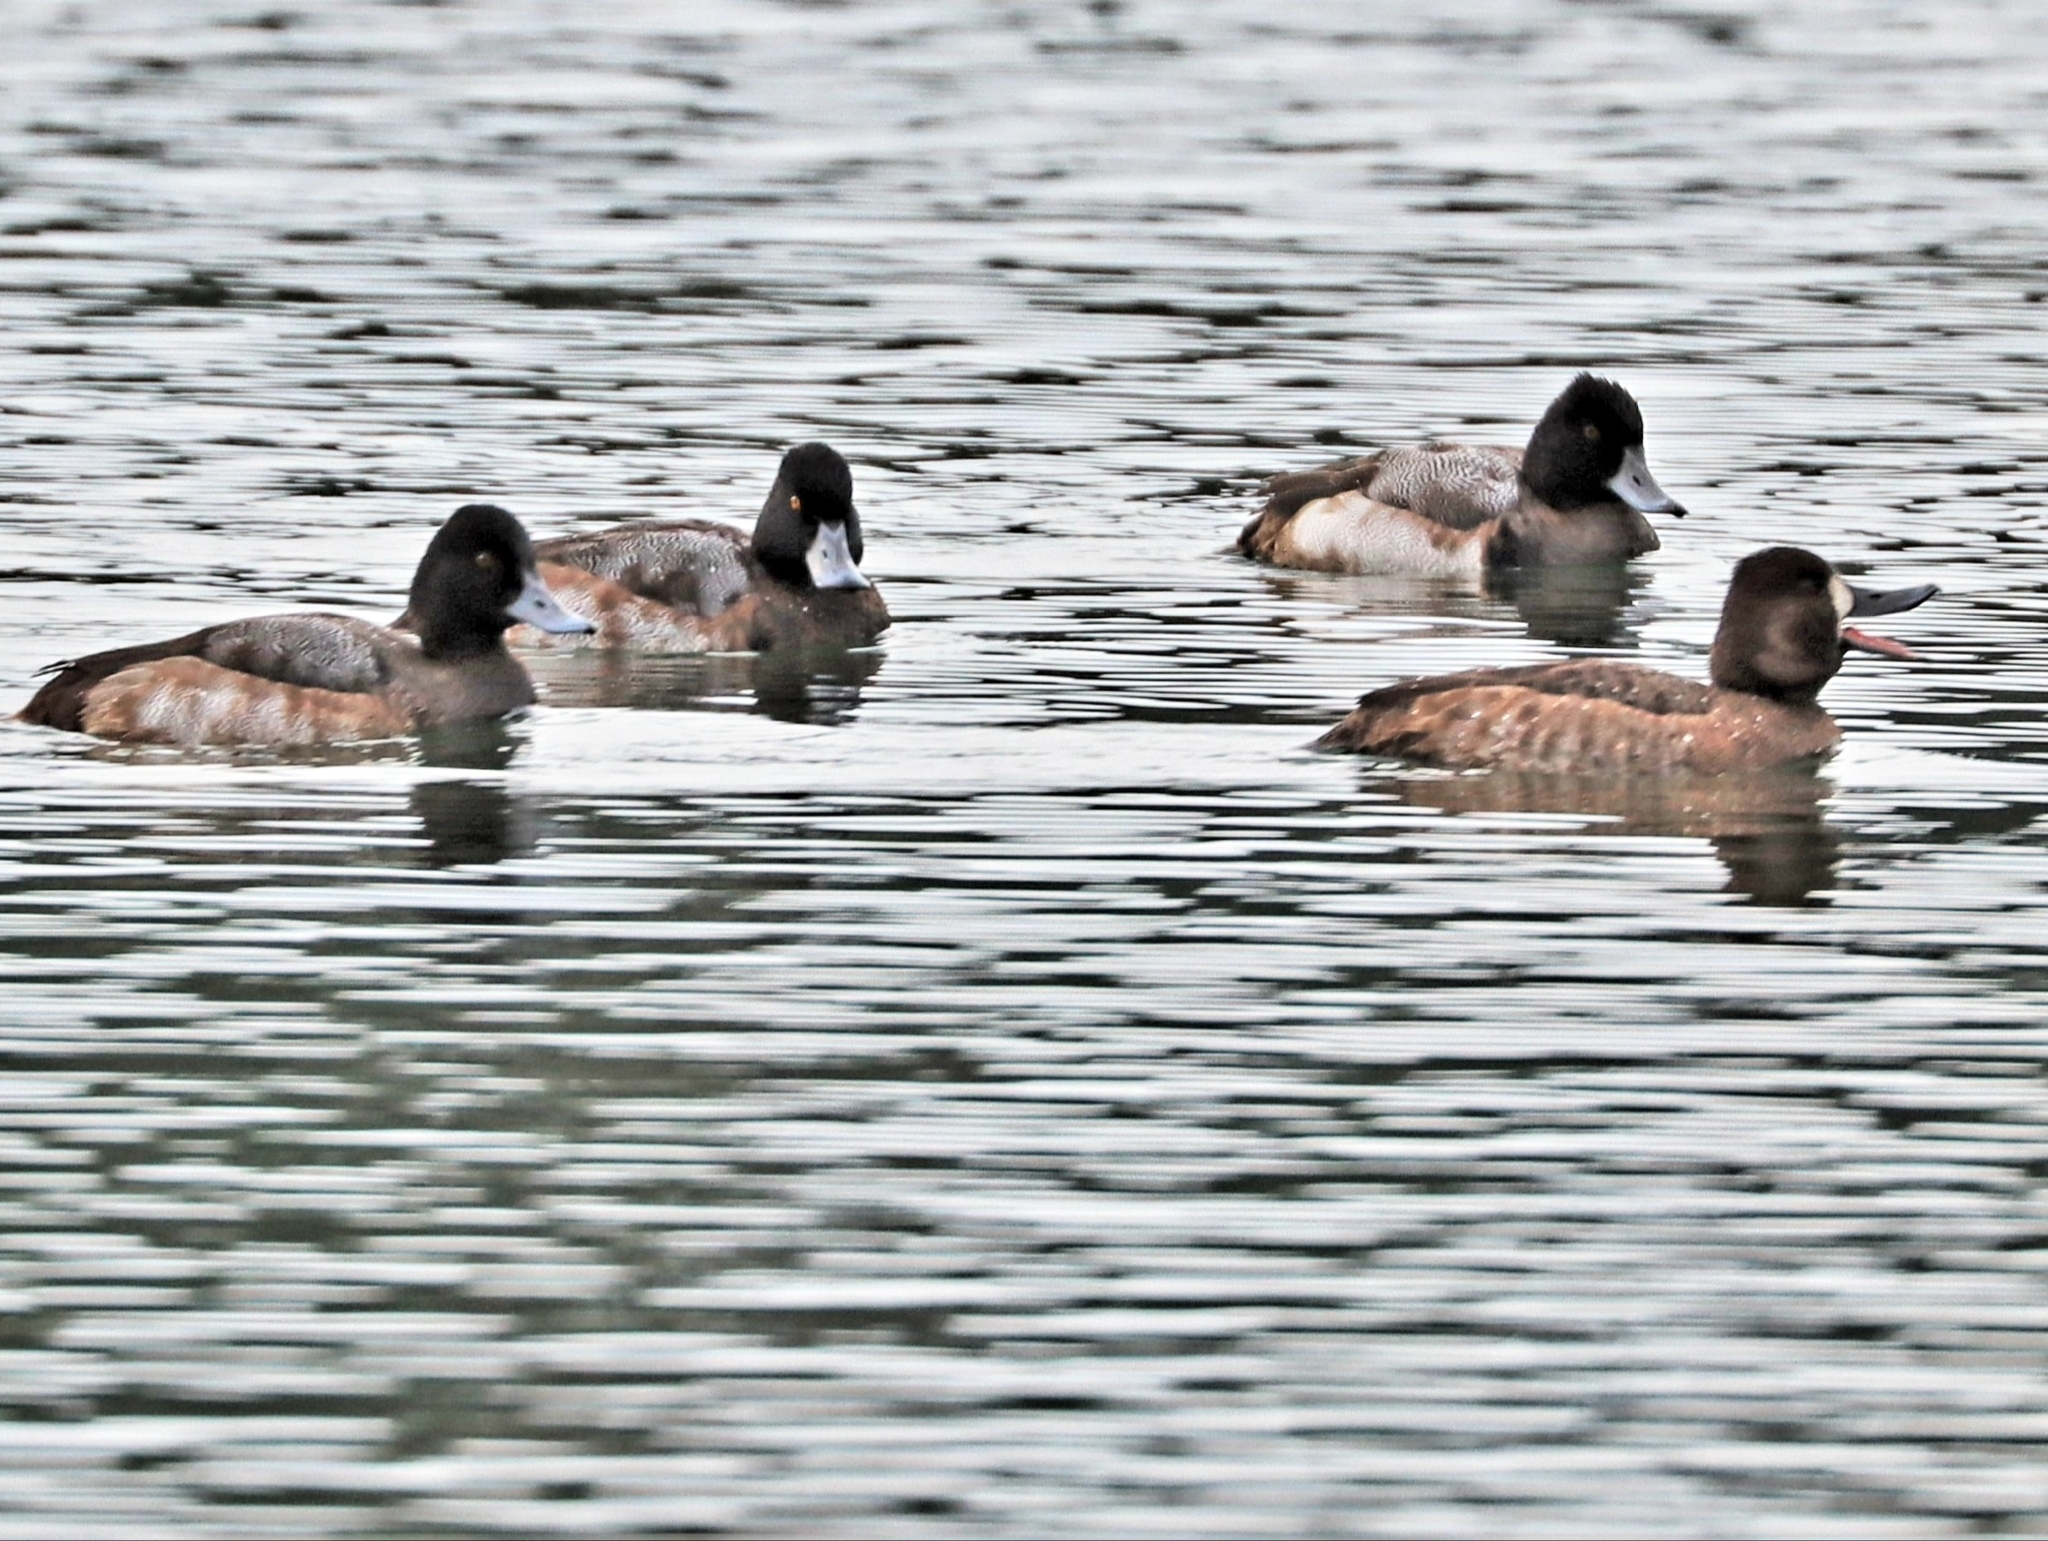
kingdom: Animalia
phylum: Chordata
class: Aves
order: Anseriformes
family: Anatidae
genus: Aythya
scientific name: Aythya affinis
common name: Lesser scaup
